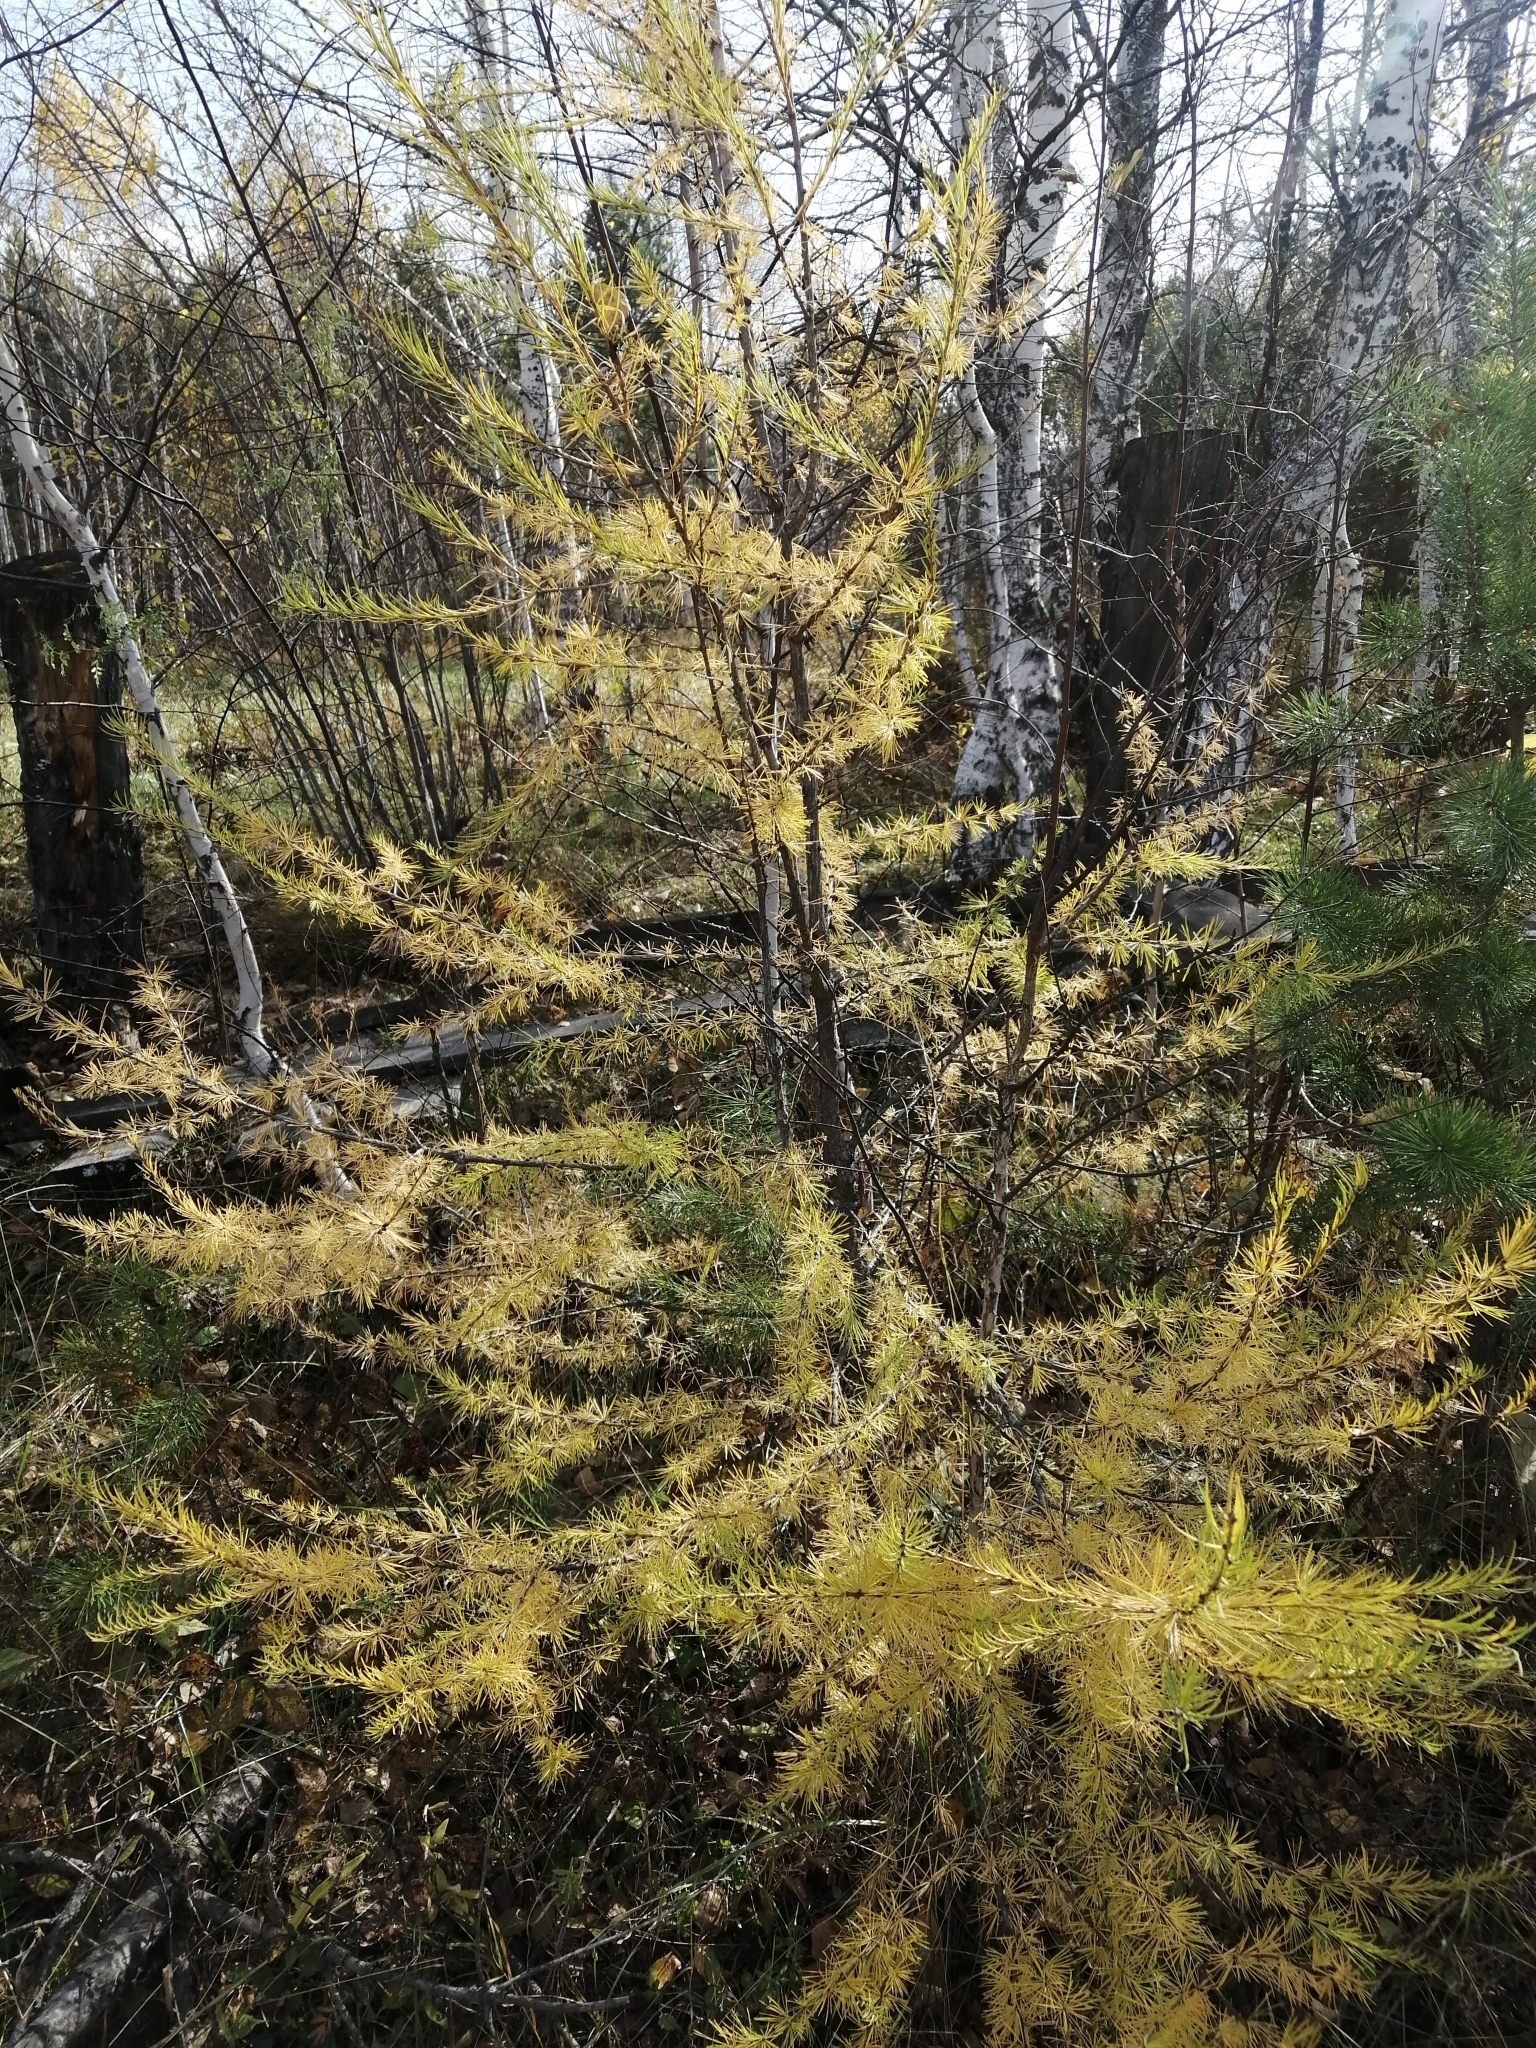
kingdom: Plantae
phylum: Tracheophyta
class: Pinopsida
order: Pinales
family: Pinaceae
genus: Larix
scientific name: Larix sibirica
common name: Siberian larch
